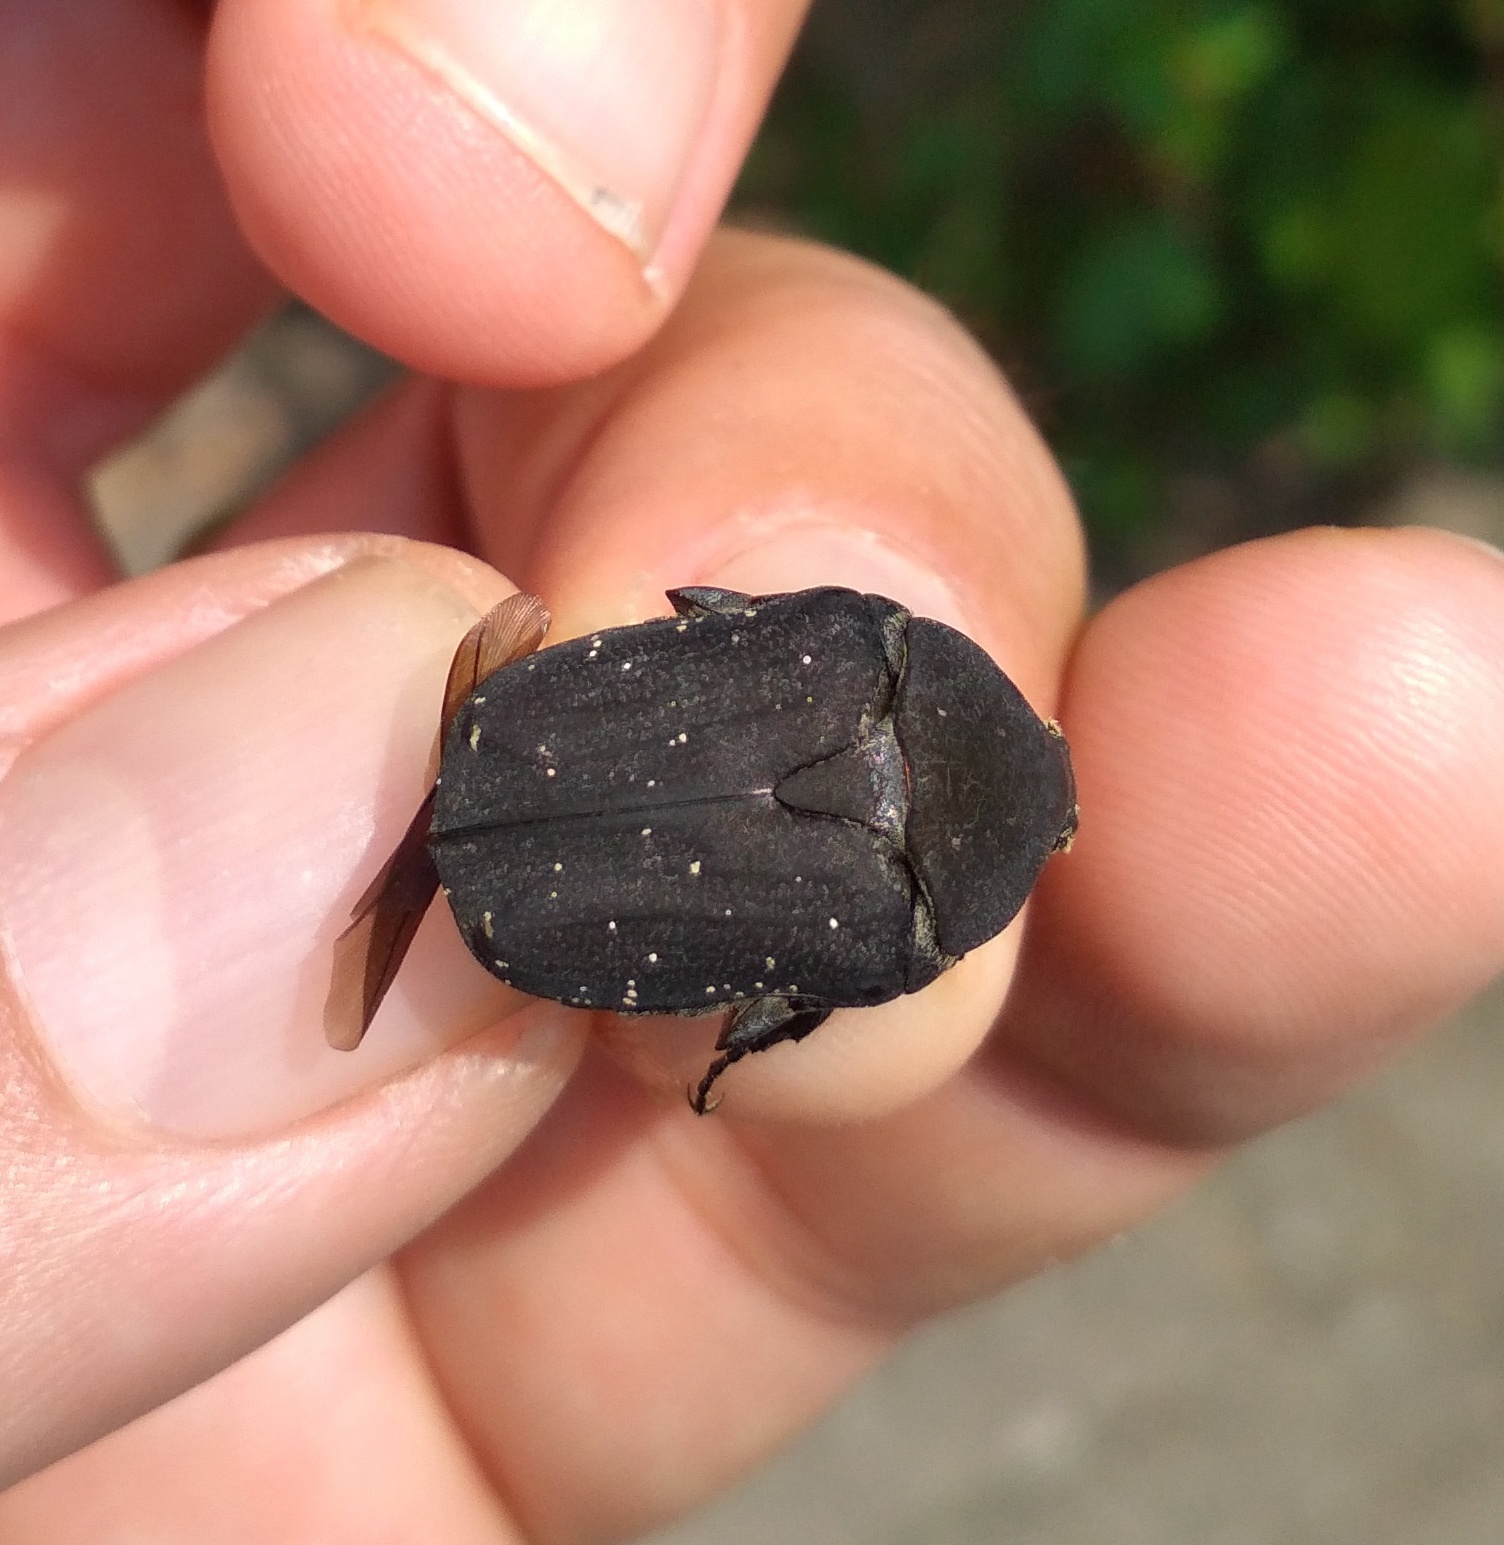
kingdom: Animalia
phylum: Arthropoda
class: Insecta
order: Coleoptera
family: Scarabaeidae
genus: Protaetia
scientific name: Protaetia morio
